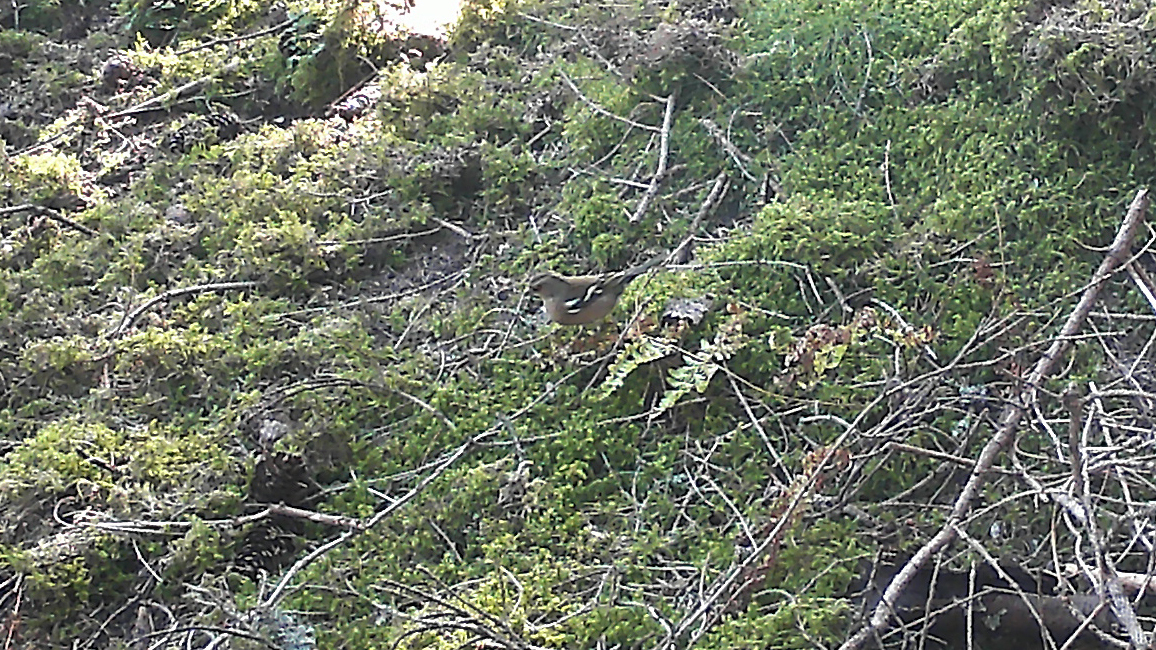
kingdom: Animalia
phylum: Chordata
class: Aves
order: Passeriformes
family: Fringillidae
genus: Fringilla
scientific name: Fringilla coelebs
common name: Common chaffinch
